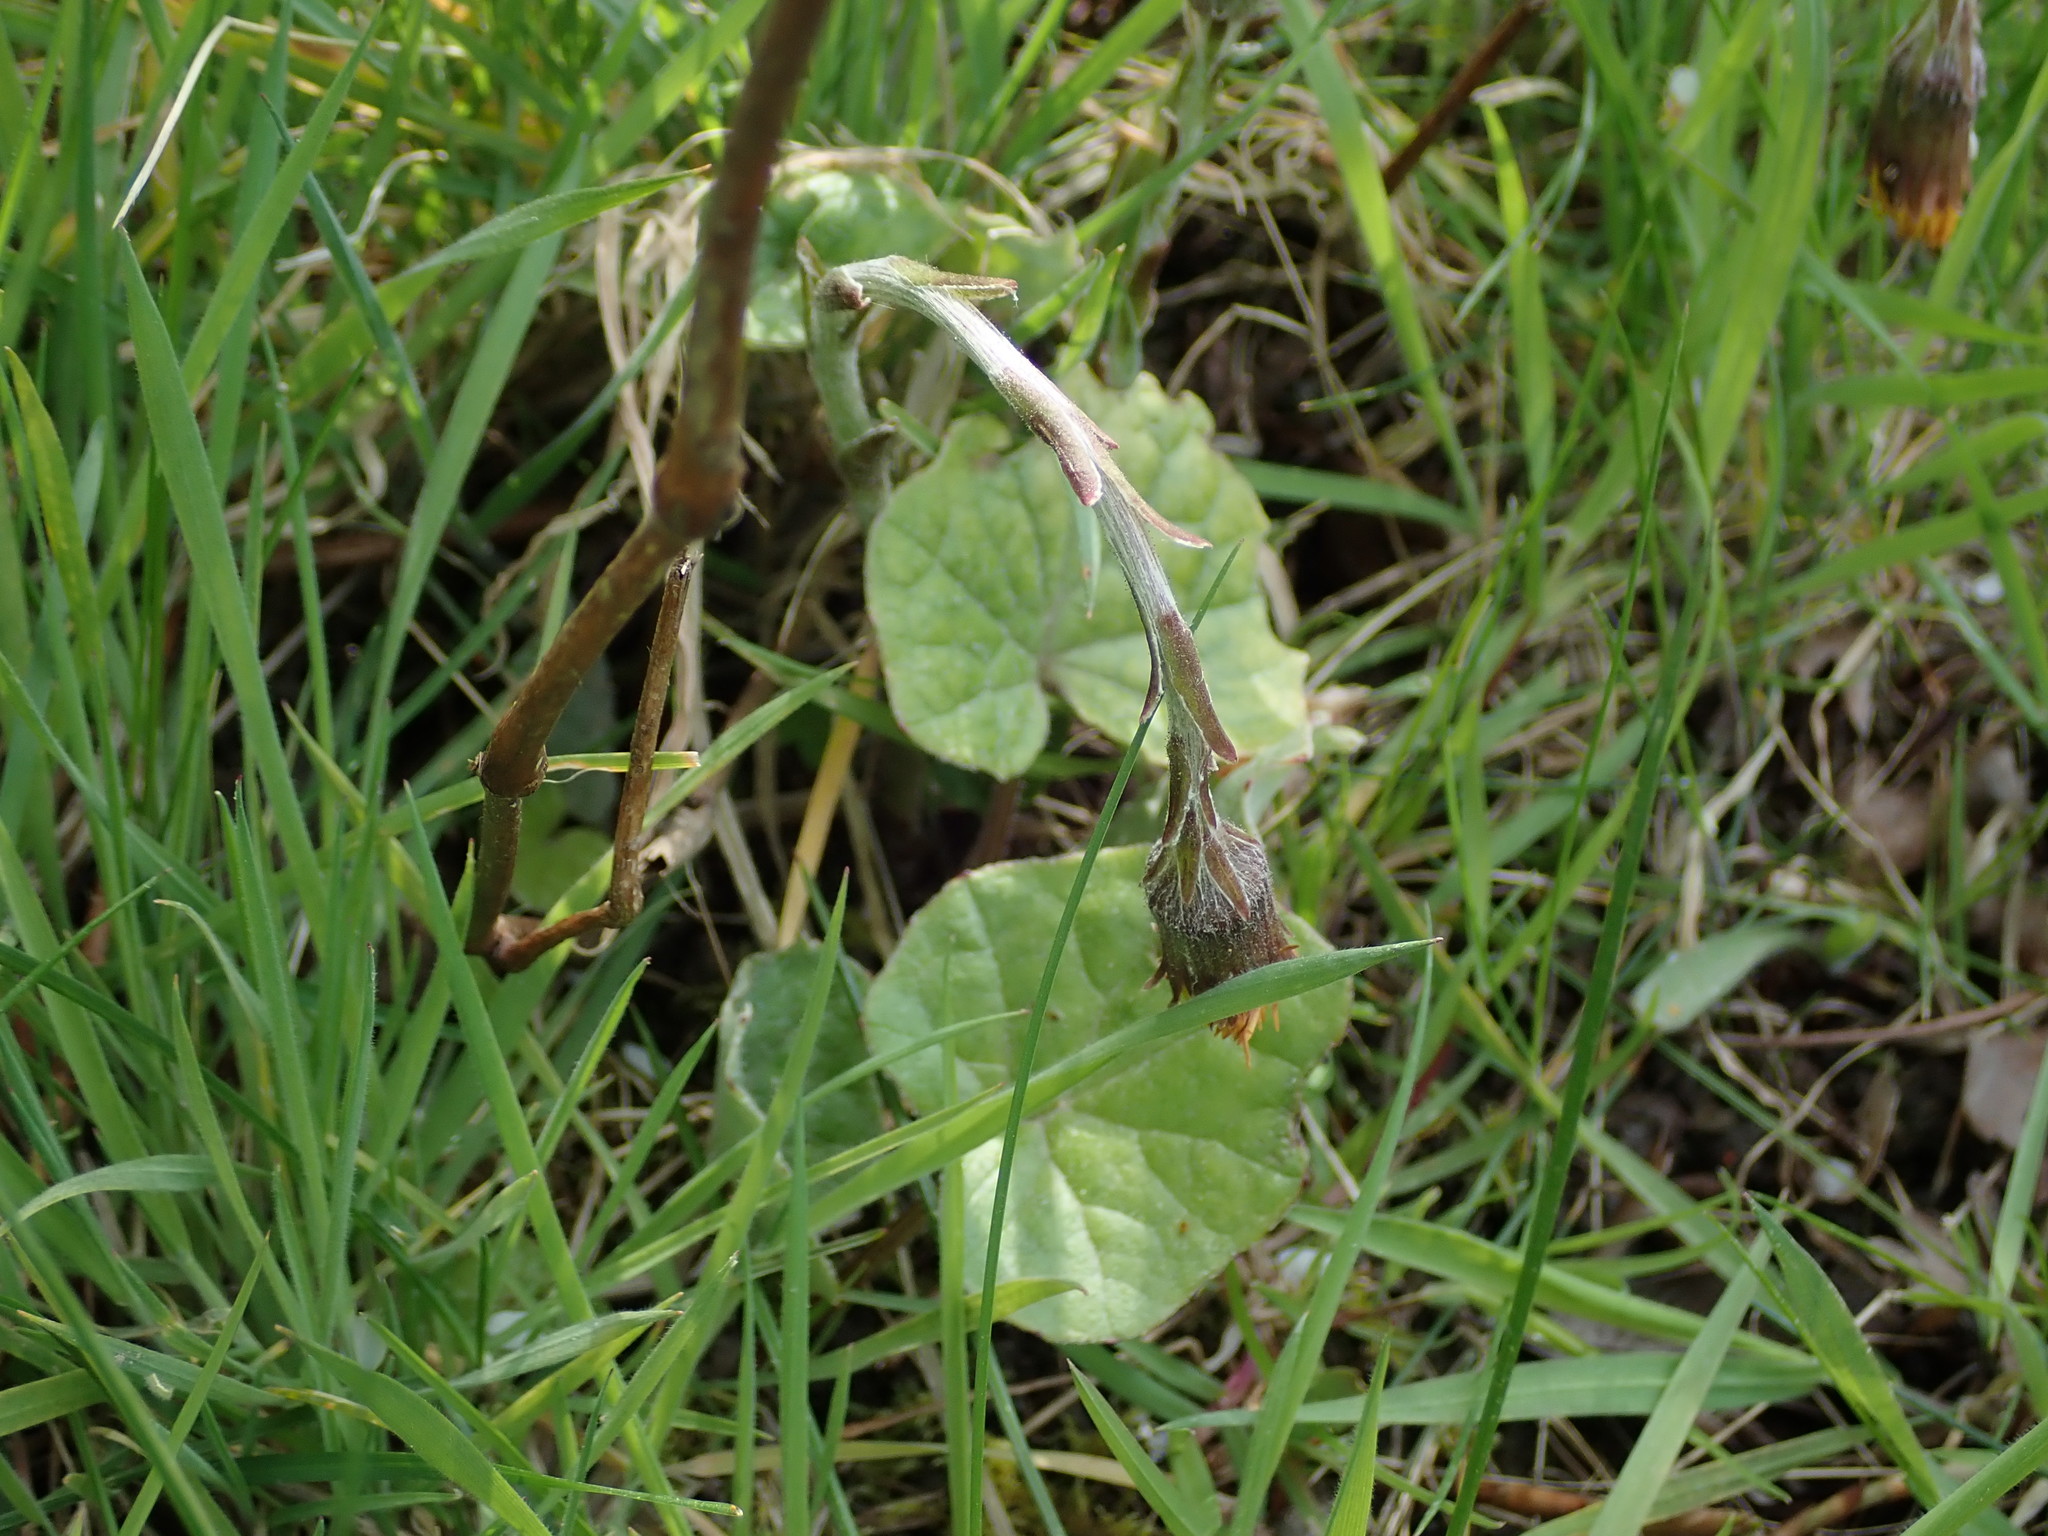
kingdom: Plantae
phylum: Tracheophyta
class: Magnoliopsida
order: Asterales
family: Asteraceae
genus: Tussilago
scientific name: Tussilago farfara
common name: Coltsfoot
